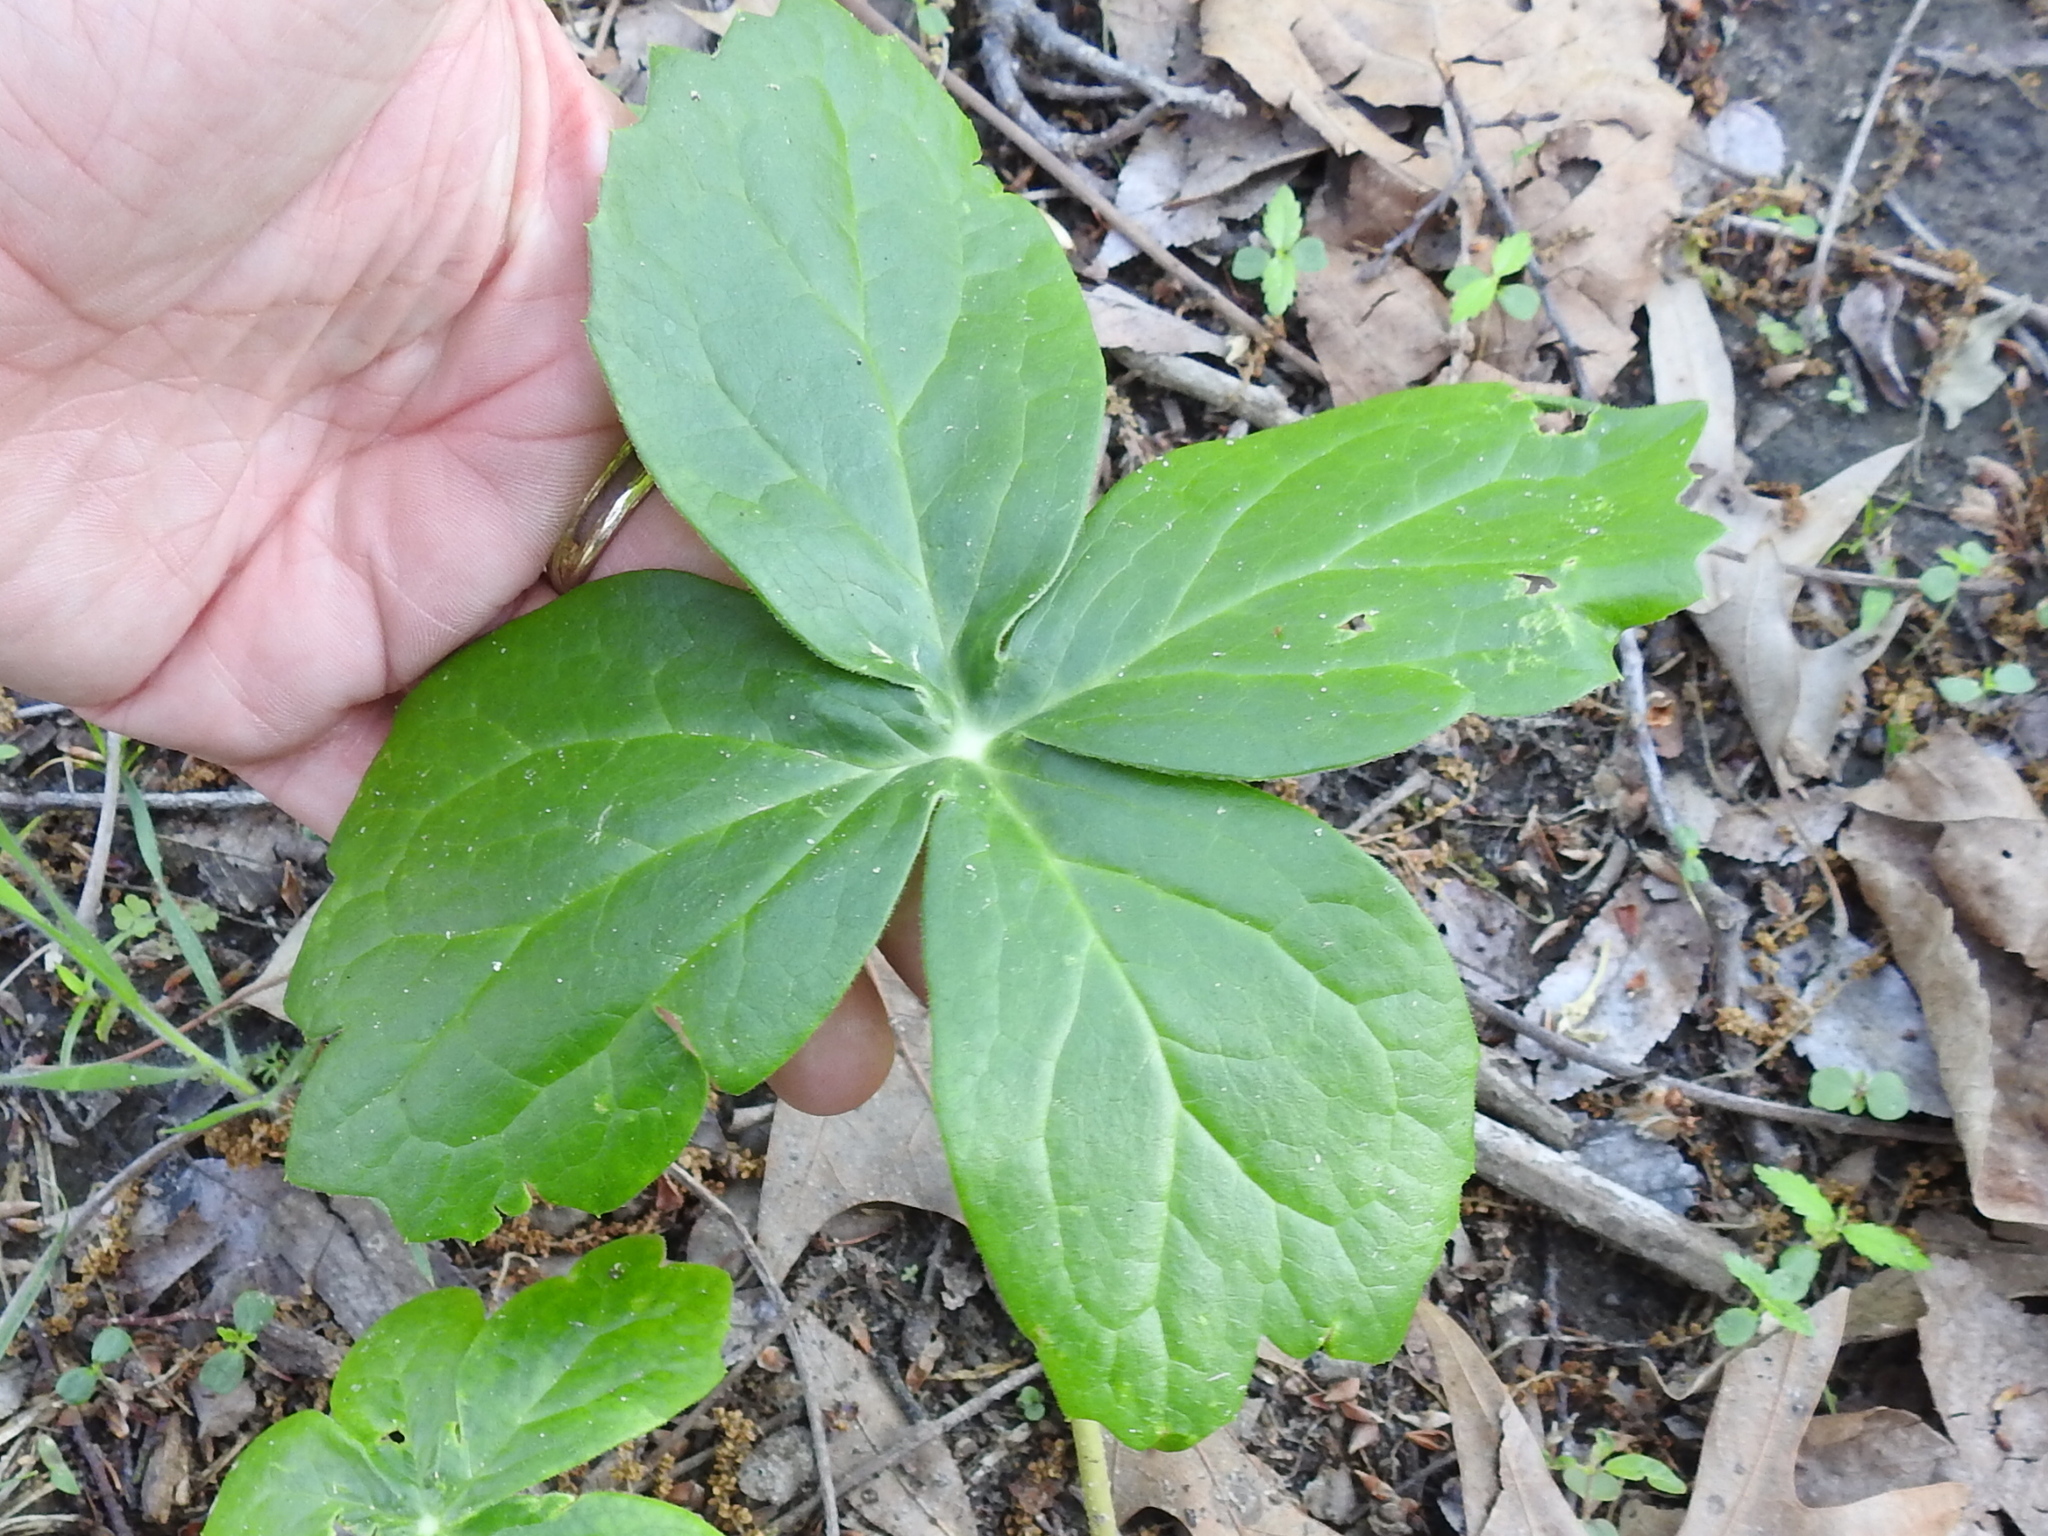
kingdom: Plantae
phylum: Tracheophyta
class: Magnoliopsida
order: Ranunculales
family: Berberidaceae
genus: Podophyllum
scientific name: Podophyllum peltatum
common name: Wild mandrake
